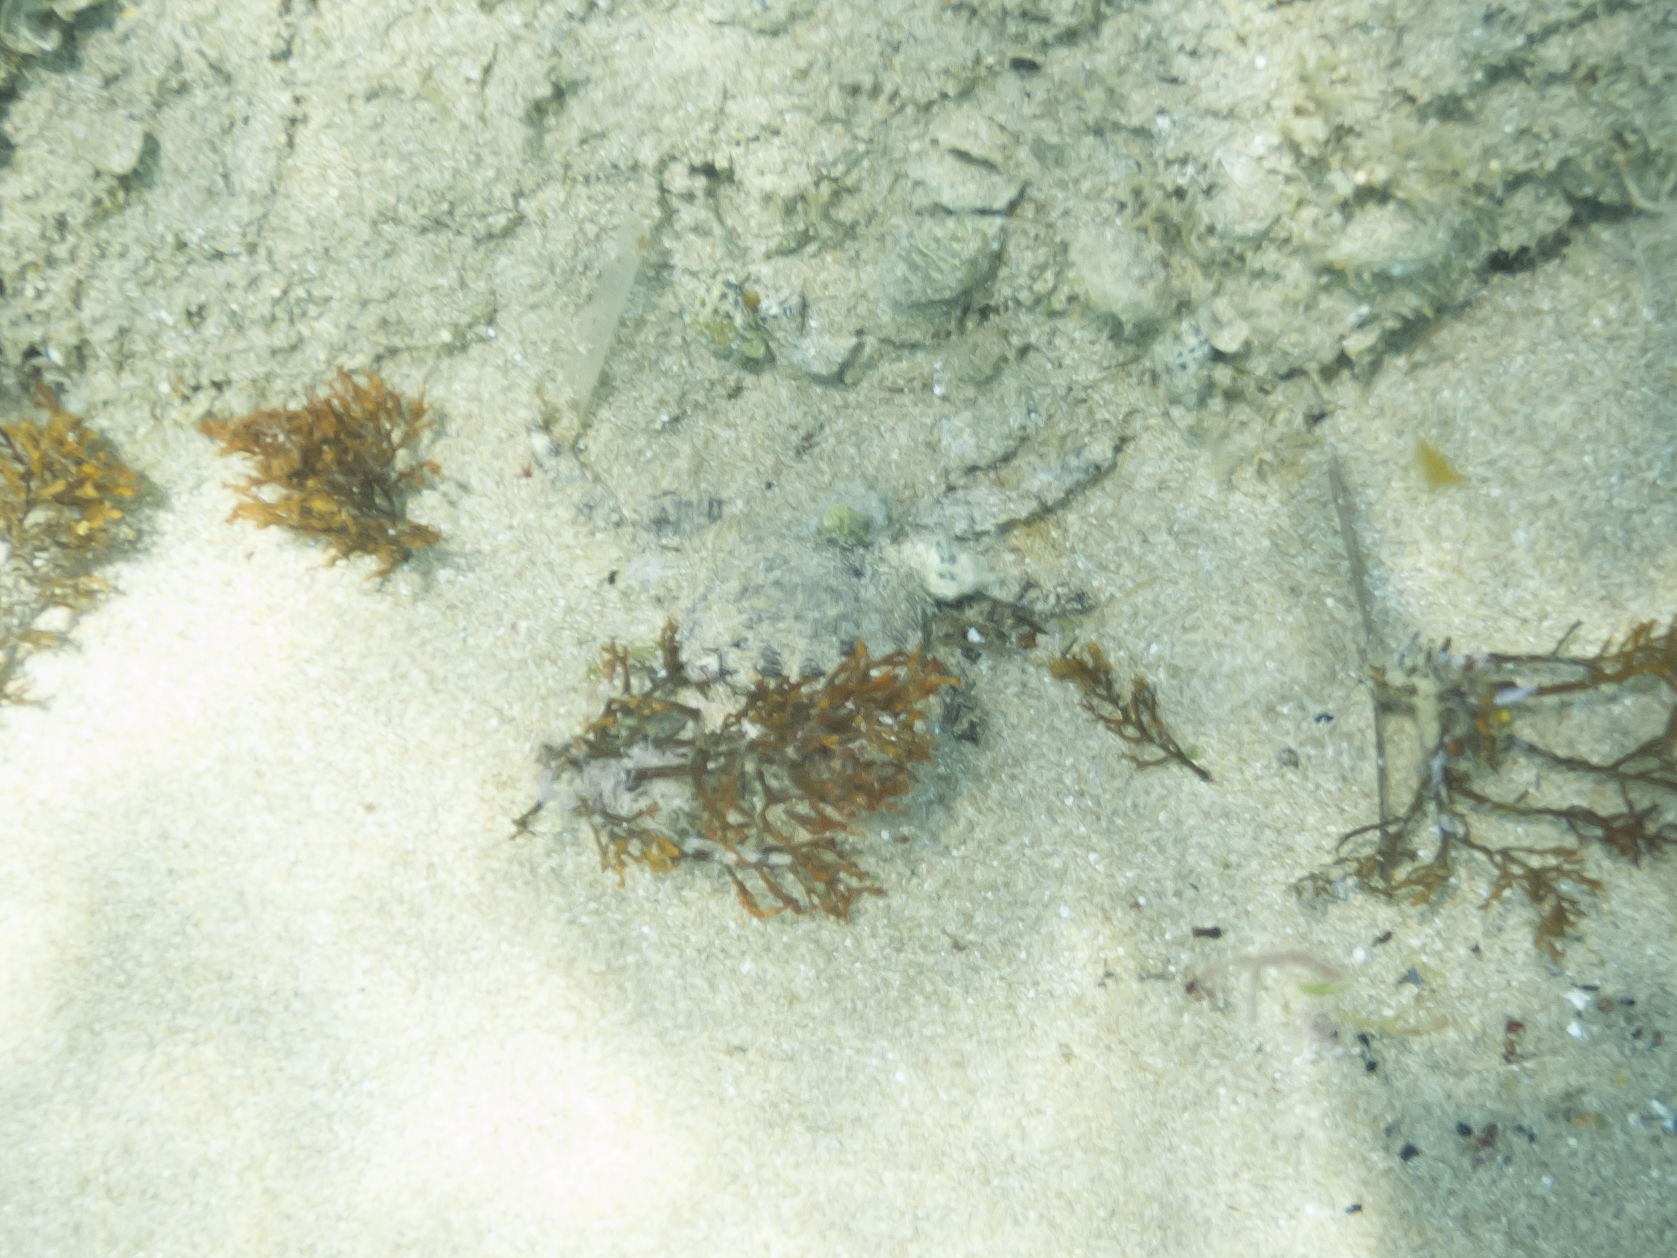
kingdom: Animalia
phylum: Arthropoda
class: Malacostraca
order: Decapoda
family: Grapsidae
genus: Pachygrapsus
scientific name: Pachygrapsus
